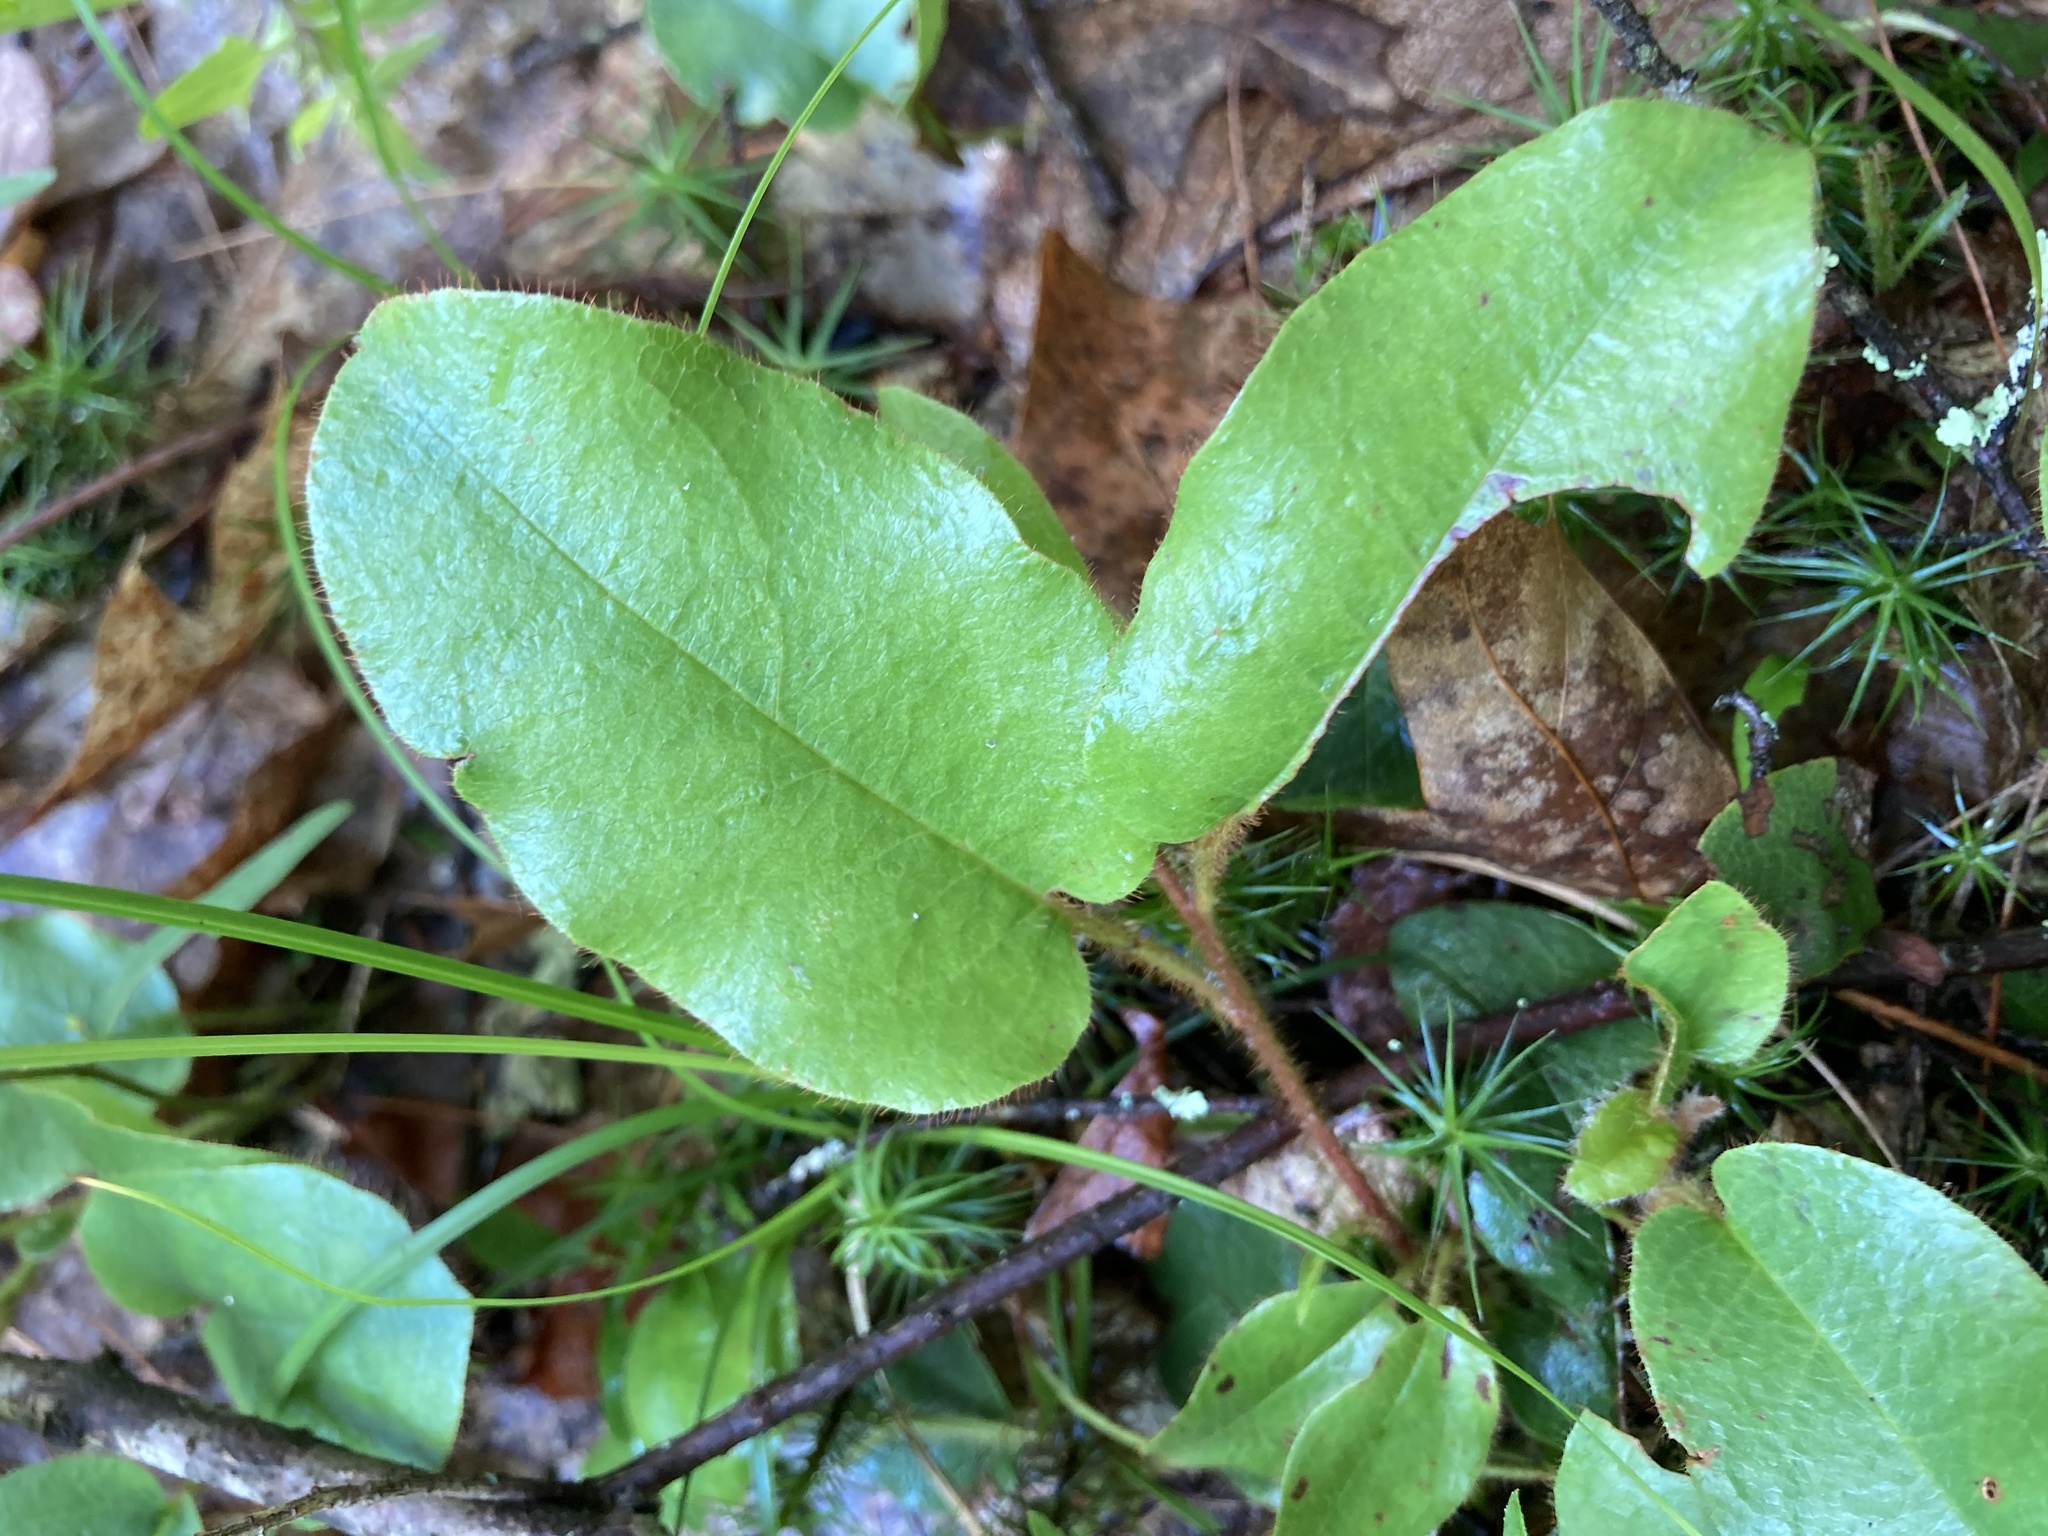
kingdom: Plantae
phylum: Tracheophyta
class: Magnoliopsida
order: Ericales
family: Ericaceae
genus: Epigaea
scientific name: Epigaea repens
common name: Gravelroot
